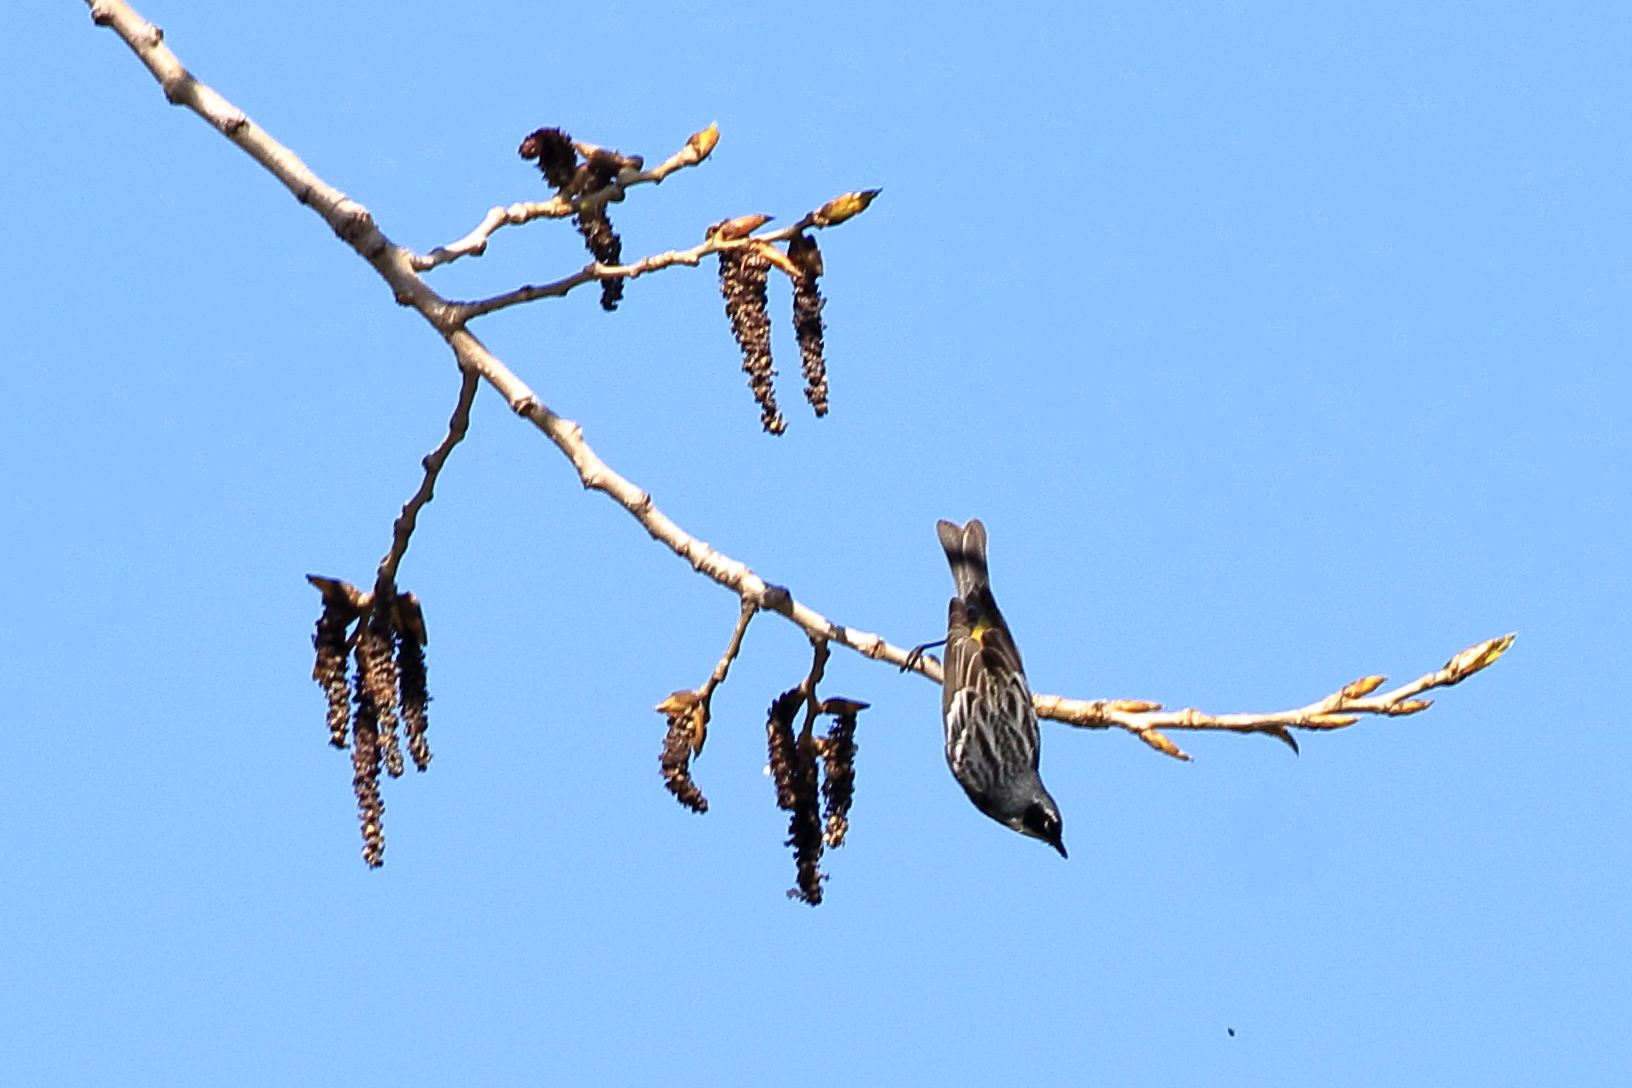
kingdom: Animalia
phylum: Chordata
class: Aves
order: Passeriformes
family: Parulidae
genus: Setophaga
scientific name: Setophaga coronata
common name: Myrtle warbler
